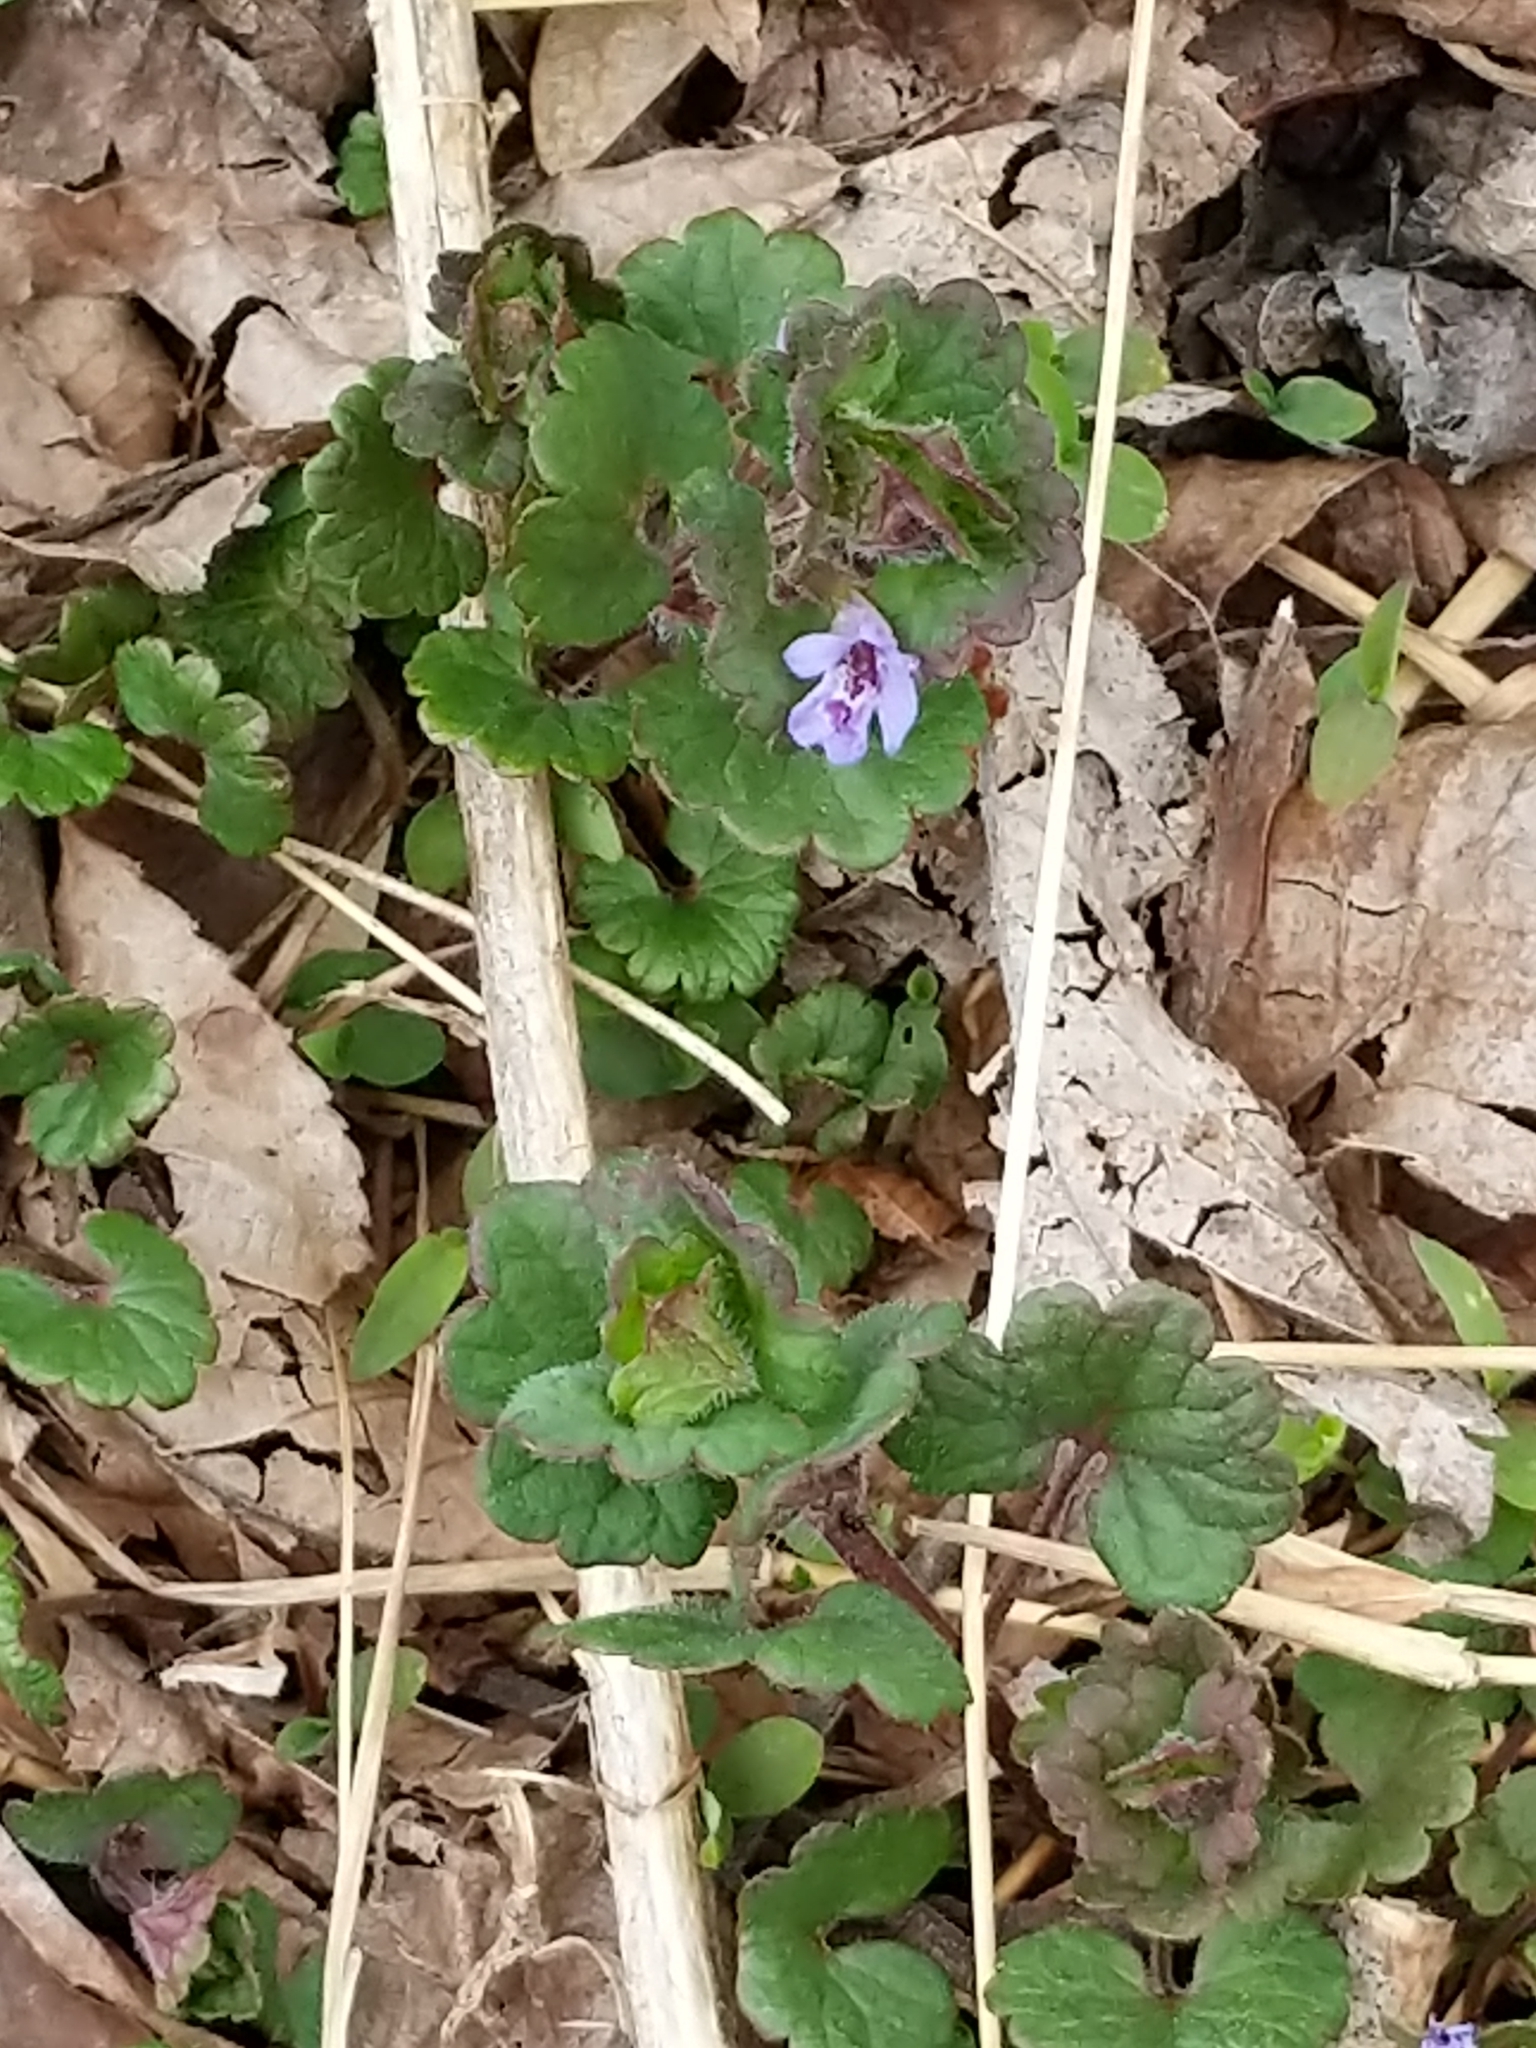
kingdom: Plantae
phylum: Tracheophyta
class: Magnoliopsida
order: Lamiales
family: Lamiaceae
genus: Glechoma
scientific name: Glechoma hederacea
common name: Ground ivy
